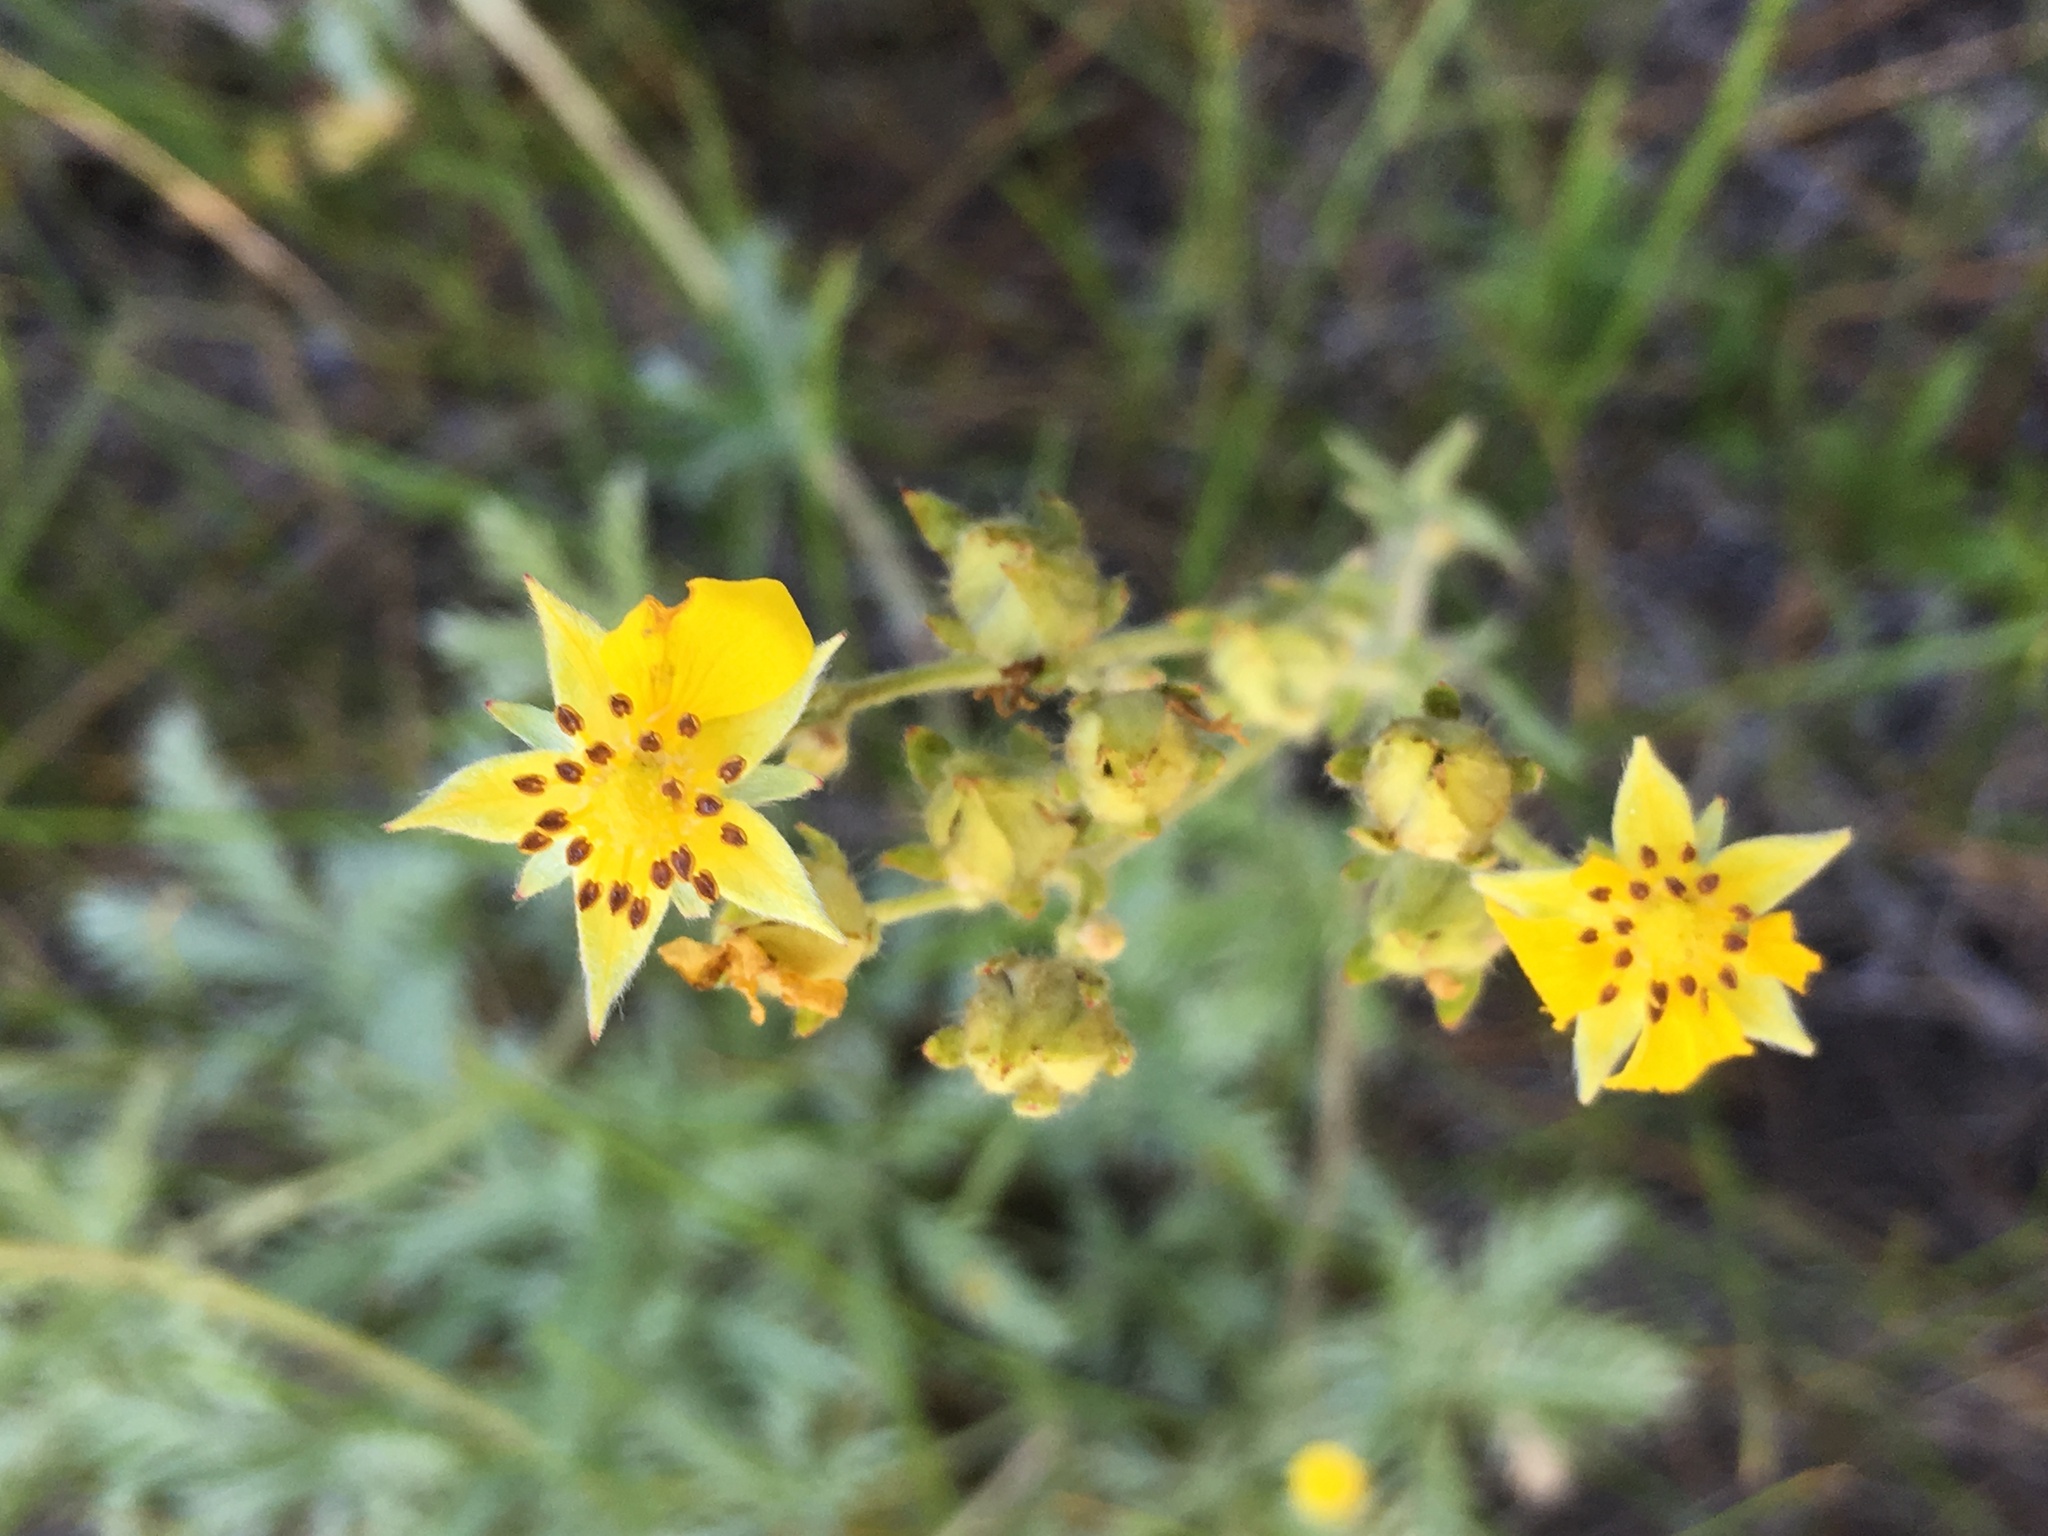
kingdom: Plantae
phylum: Tracheophyta
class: Magnoliopsida
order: Rosales
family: Rosaceae
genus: Potentilla
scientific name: Potentilla gracilis
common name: Graceful cinquefoil
